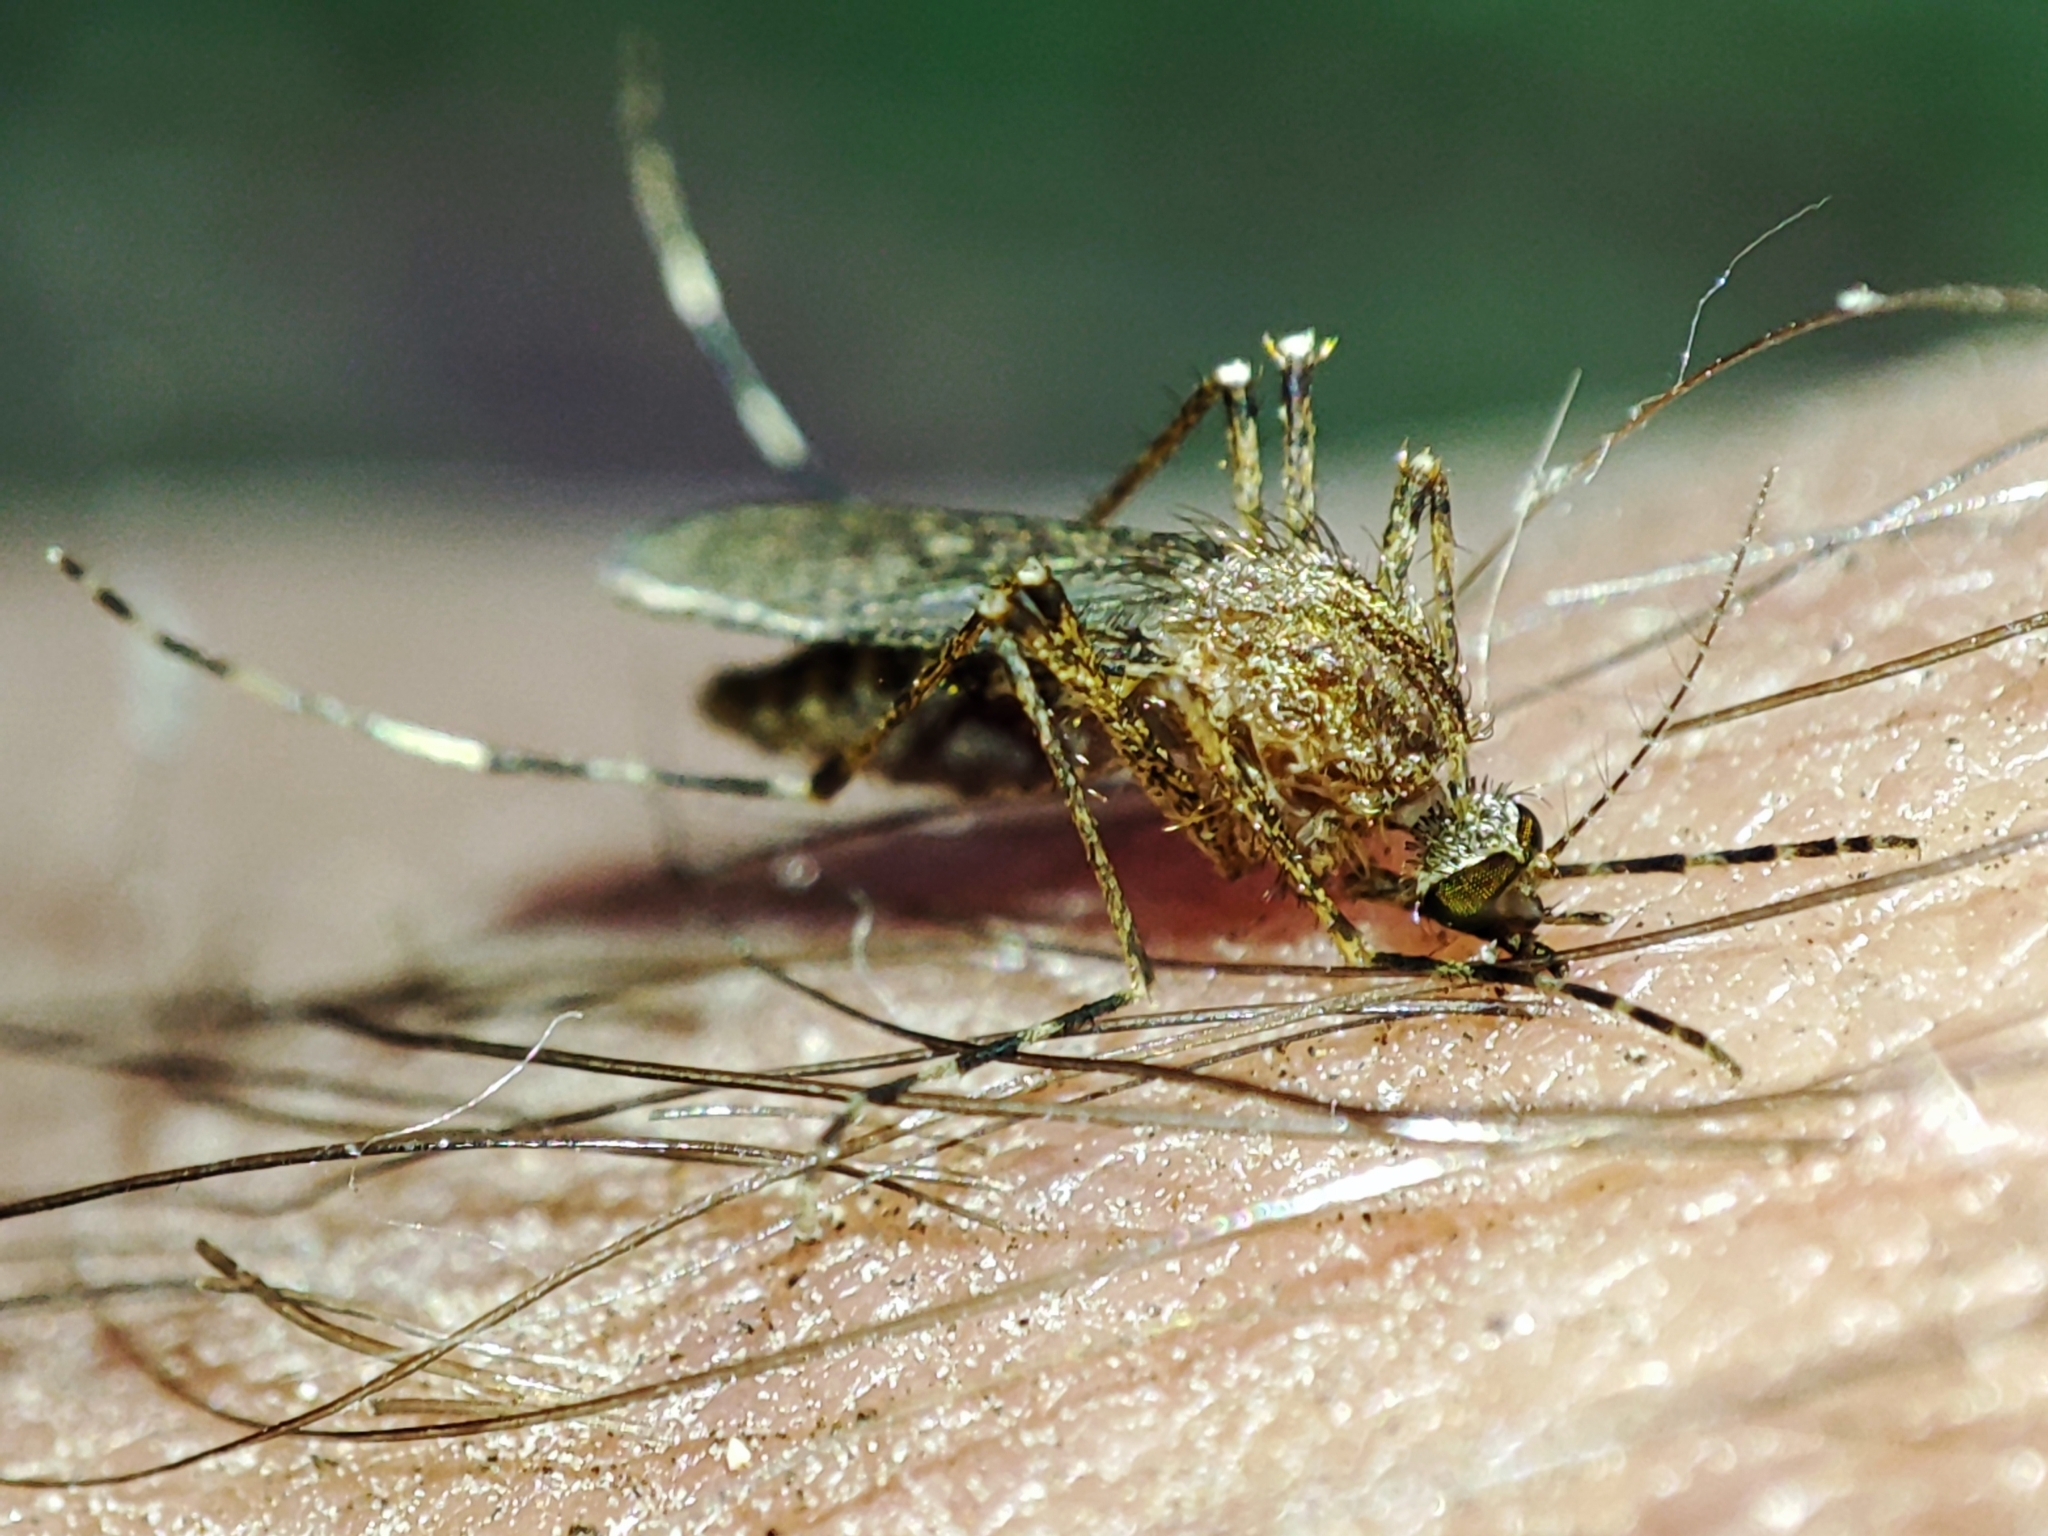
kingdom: Animalia
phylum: Arthropoda
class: Insecta
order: Diptera
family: Culicidae
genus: Coquillettidia
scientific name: Coquillettidia richiardii
